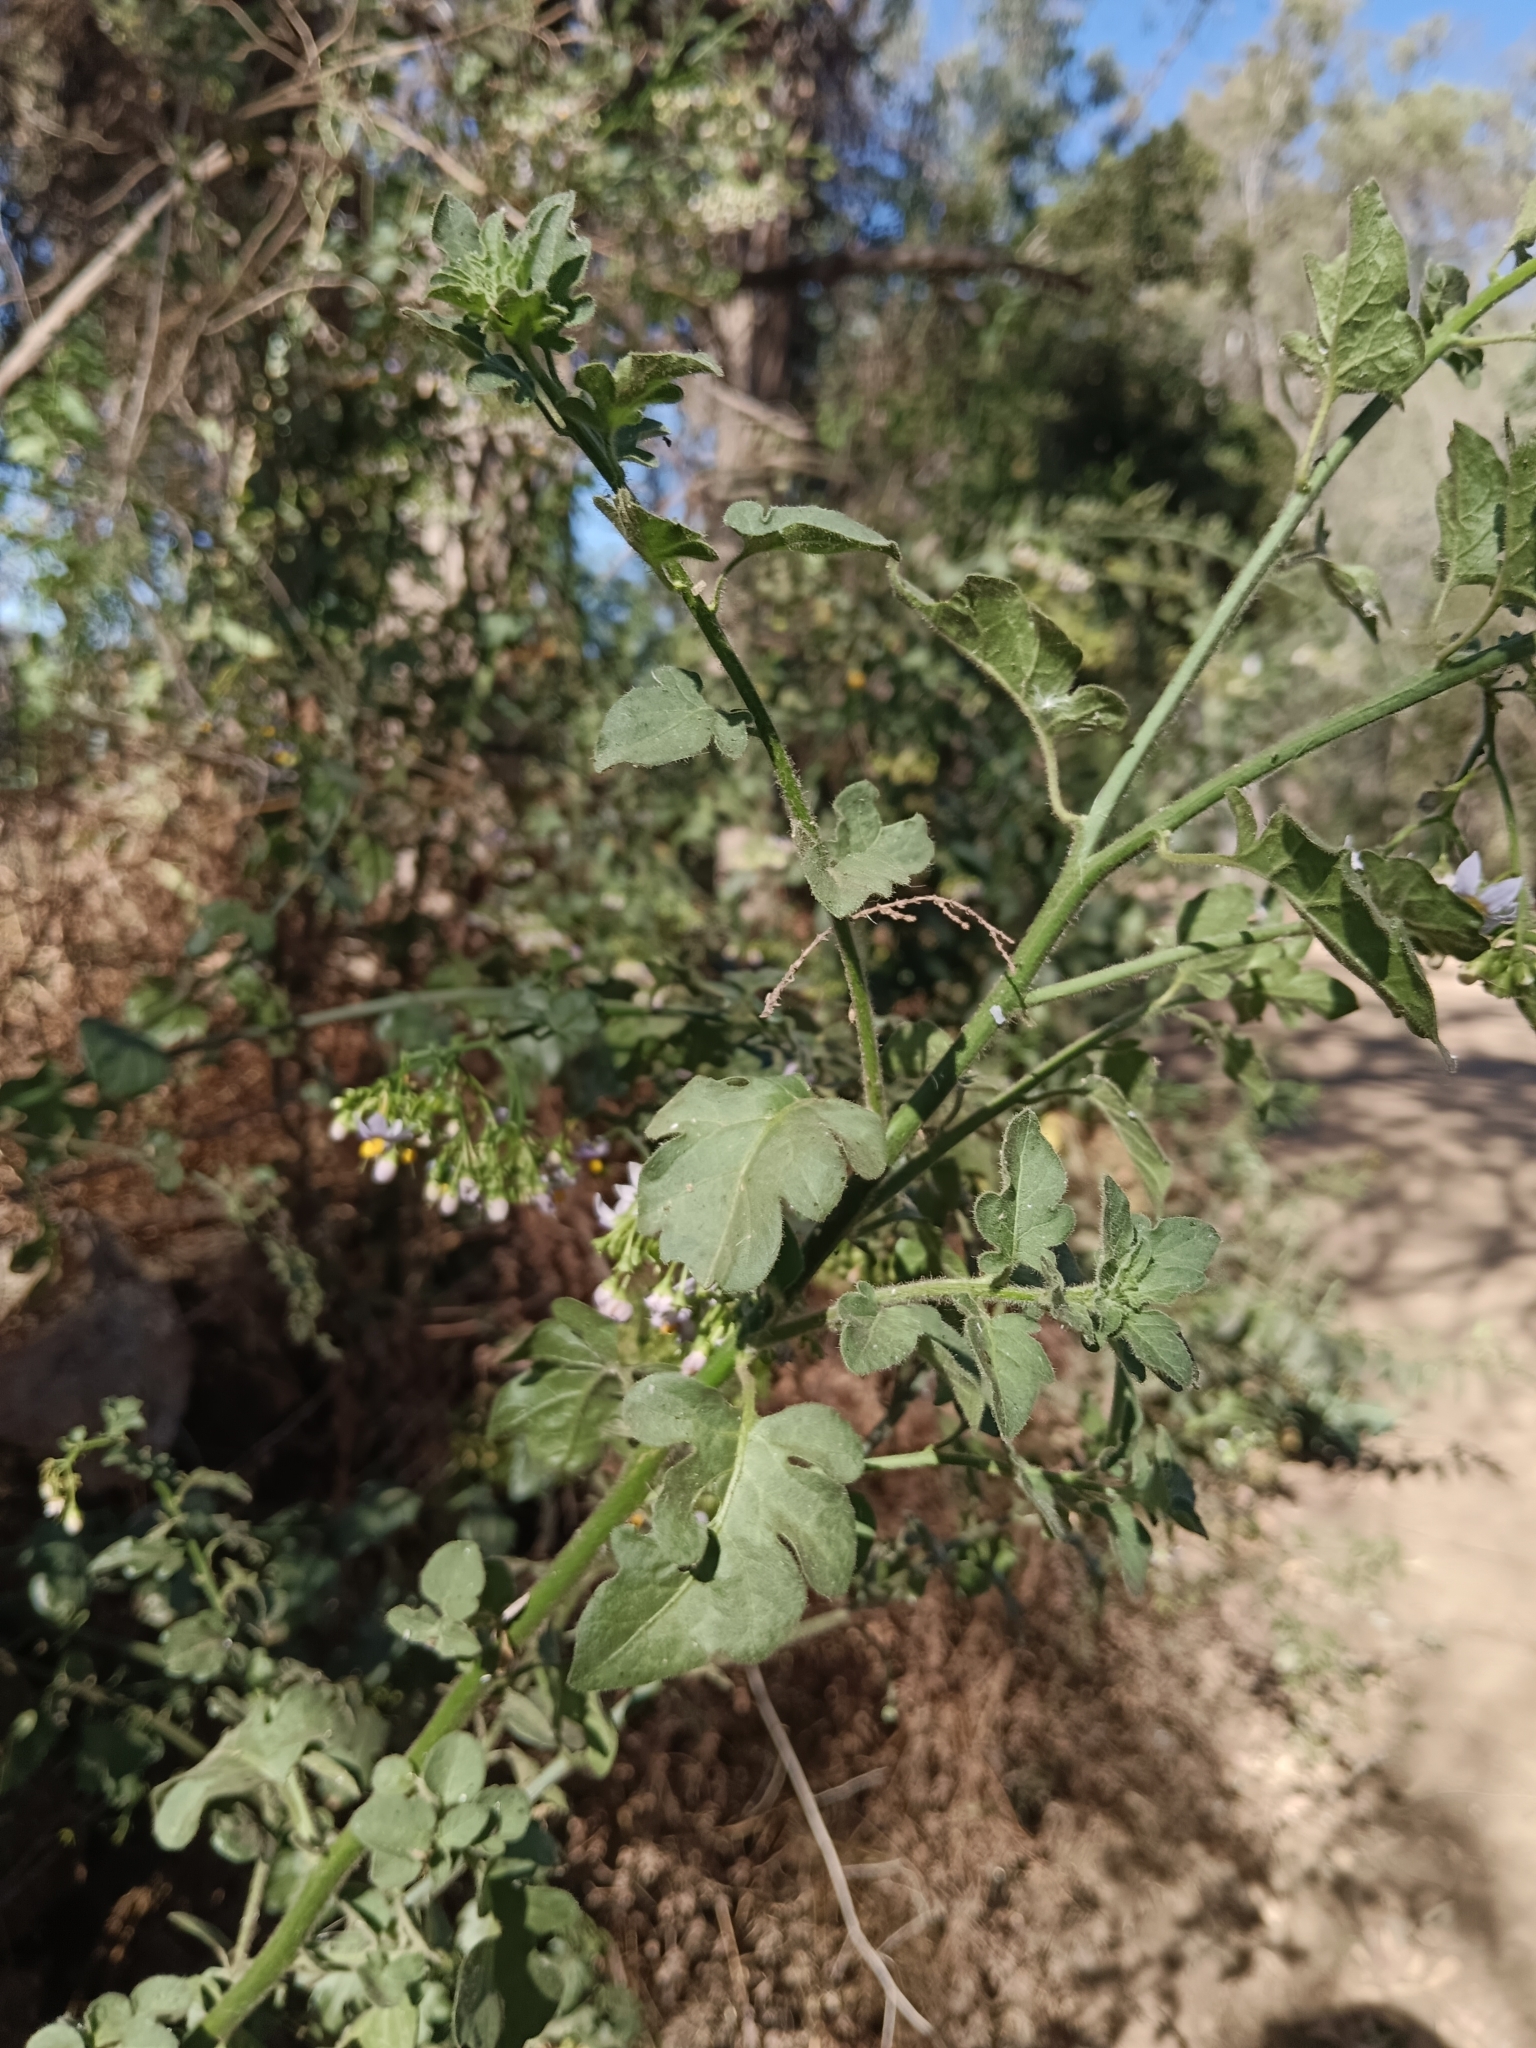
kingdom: Plantae
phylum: Tracheophyta
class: Magnoliopsida
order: Solanales
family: Solanaceae
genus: Solanum
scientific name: Solanum alphonsi
